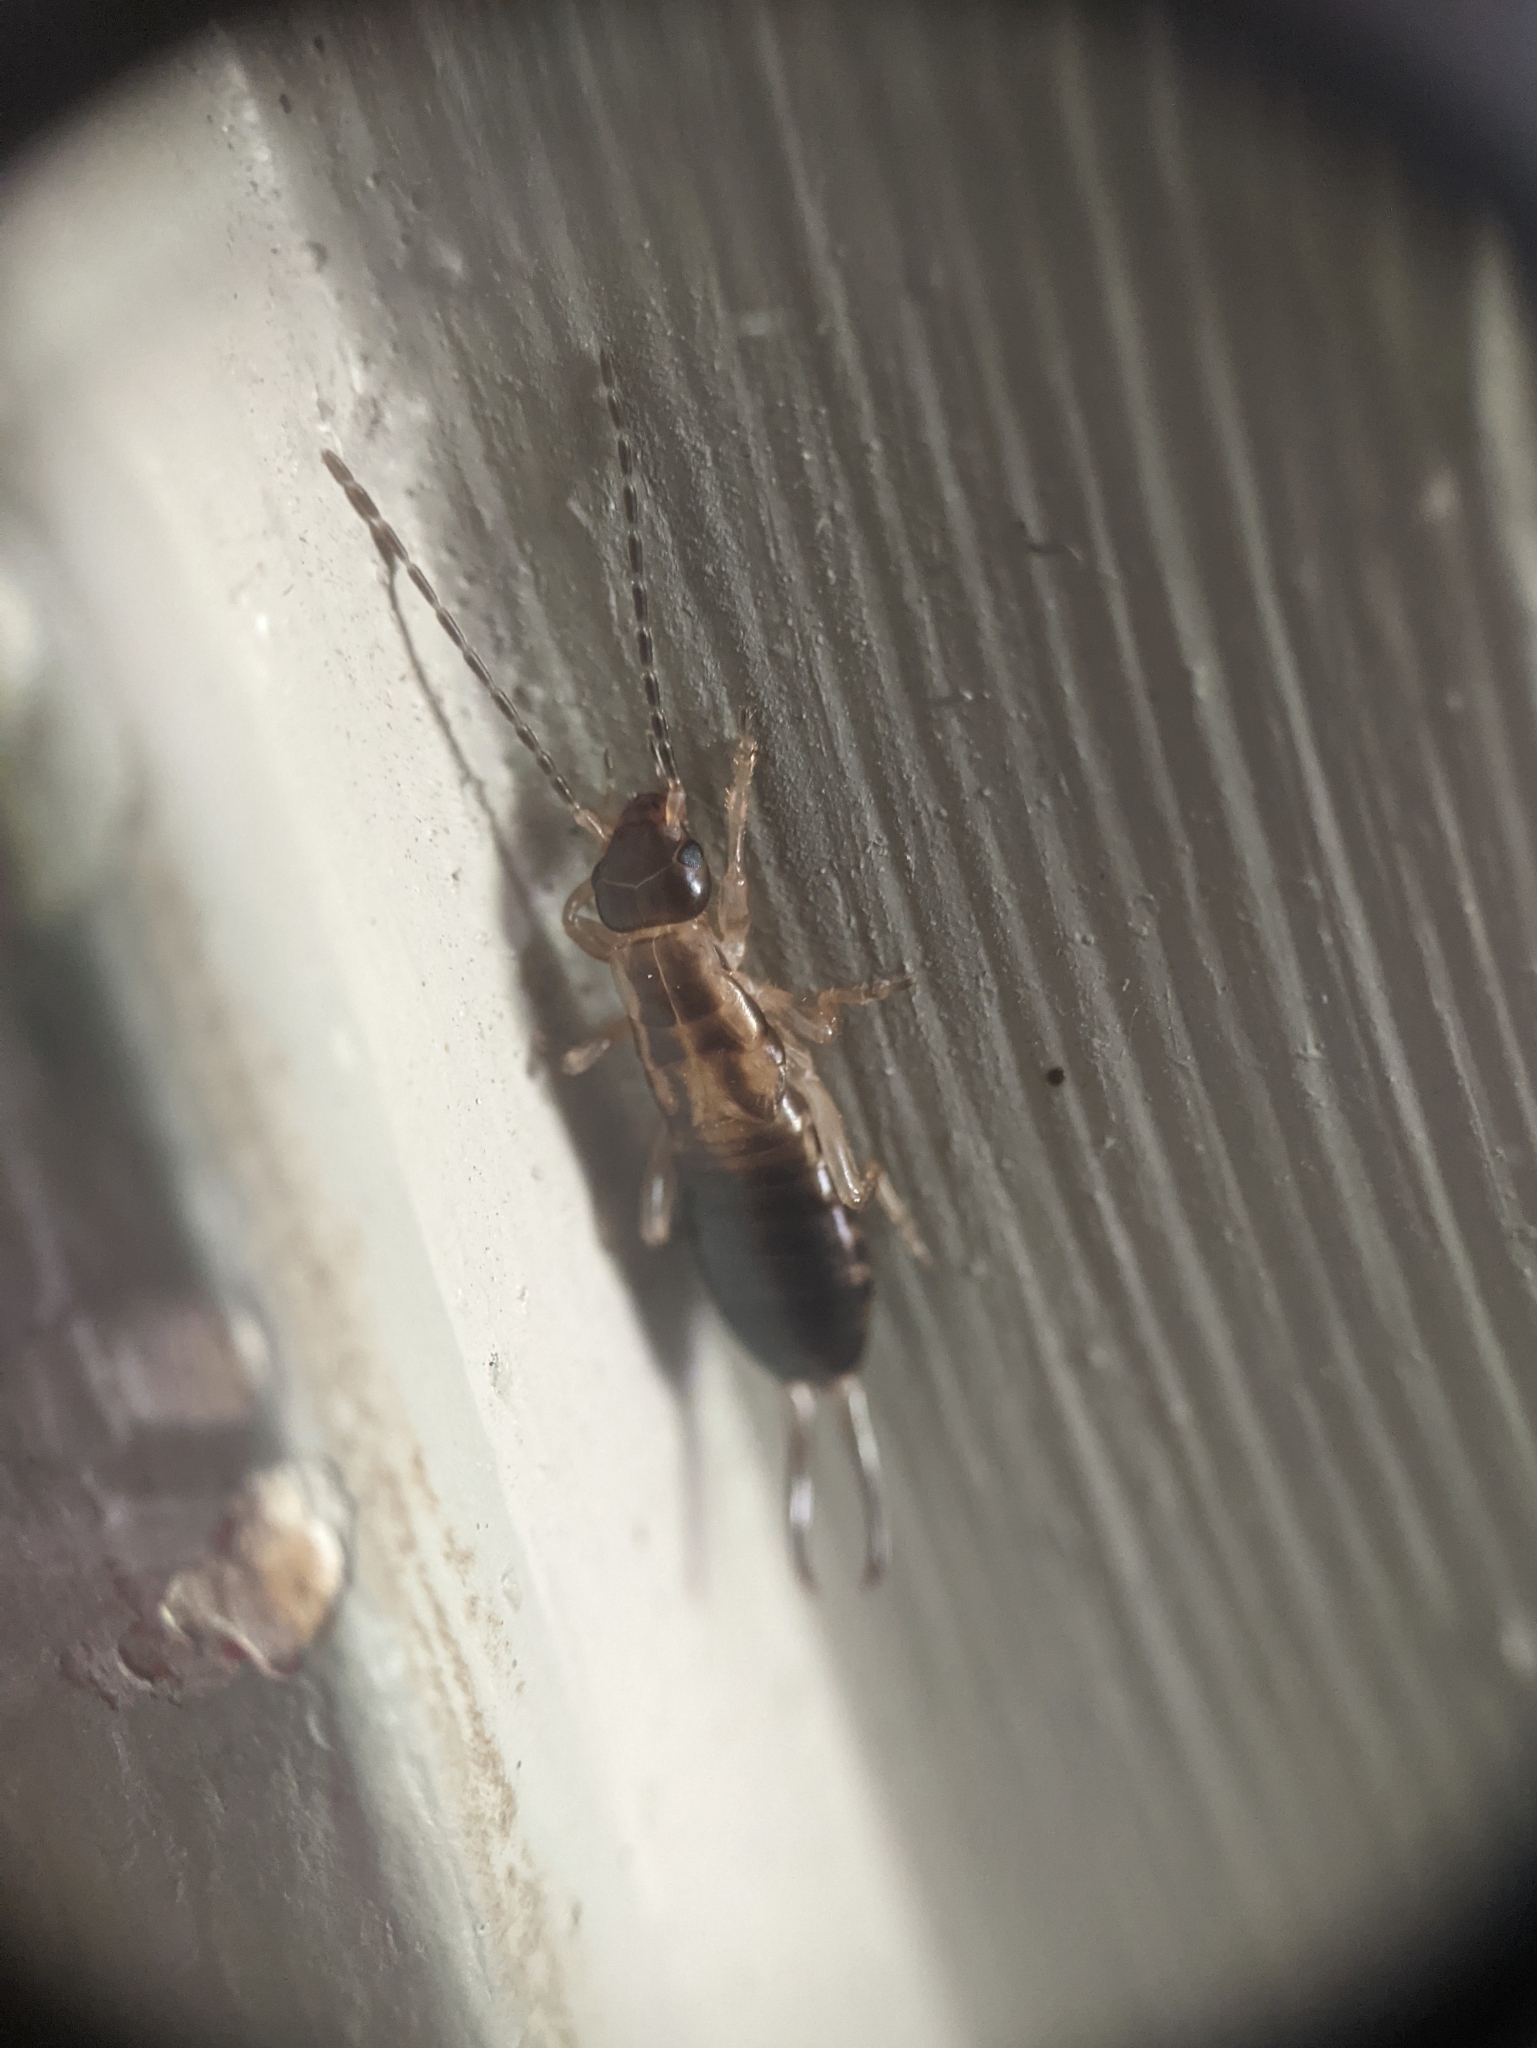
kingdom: Animalia
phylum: Arthropoda
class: Insecta
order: Dermaptera
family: Forficulidae
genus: Forficula
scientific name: Forficula
